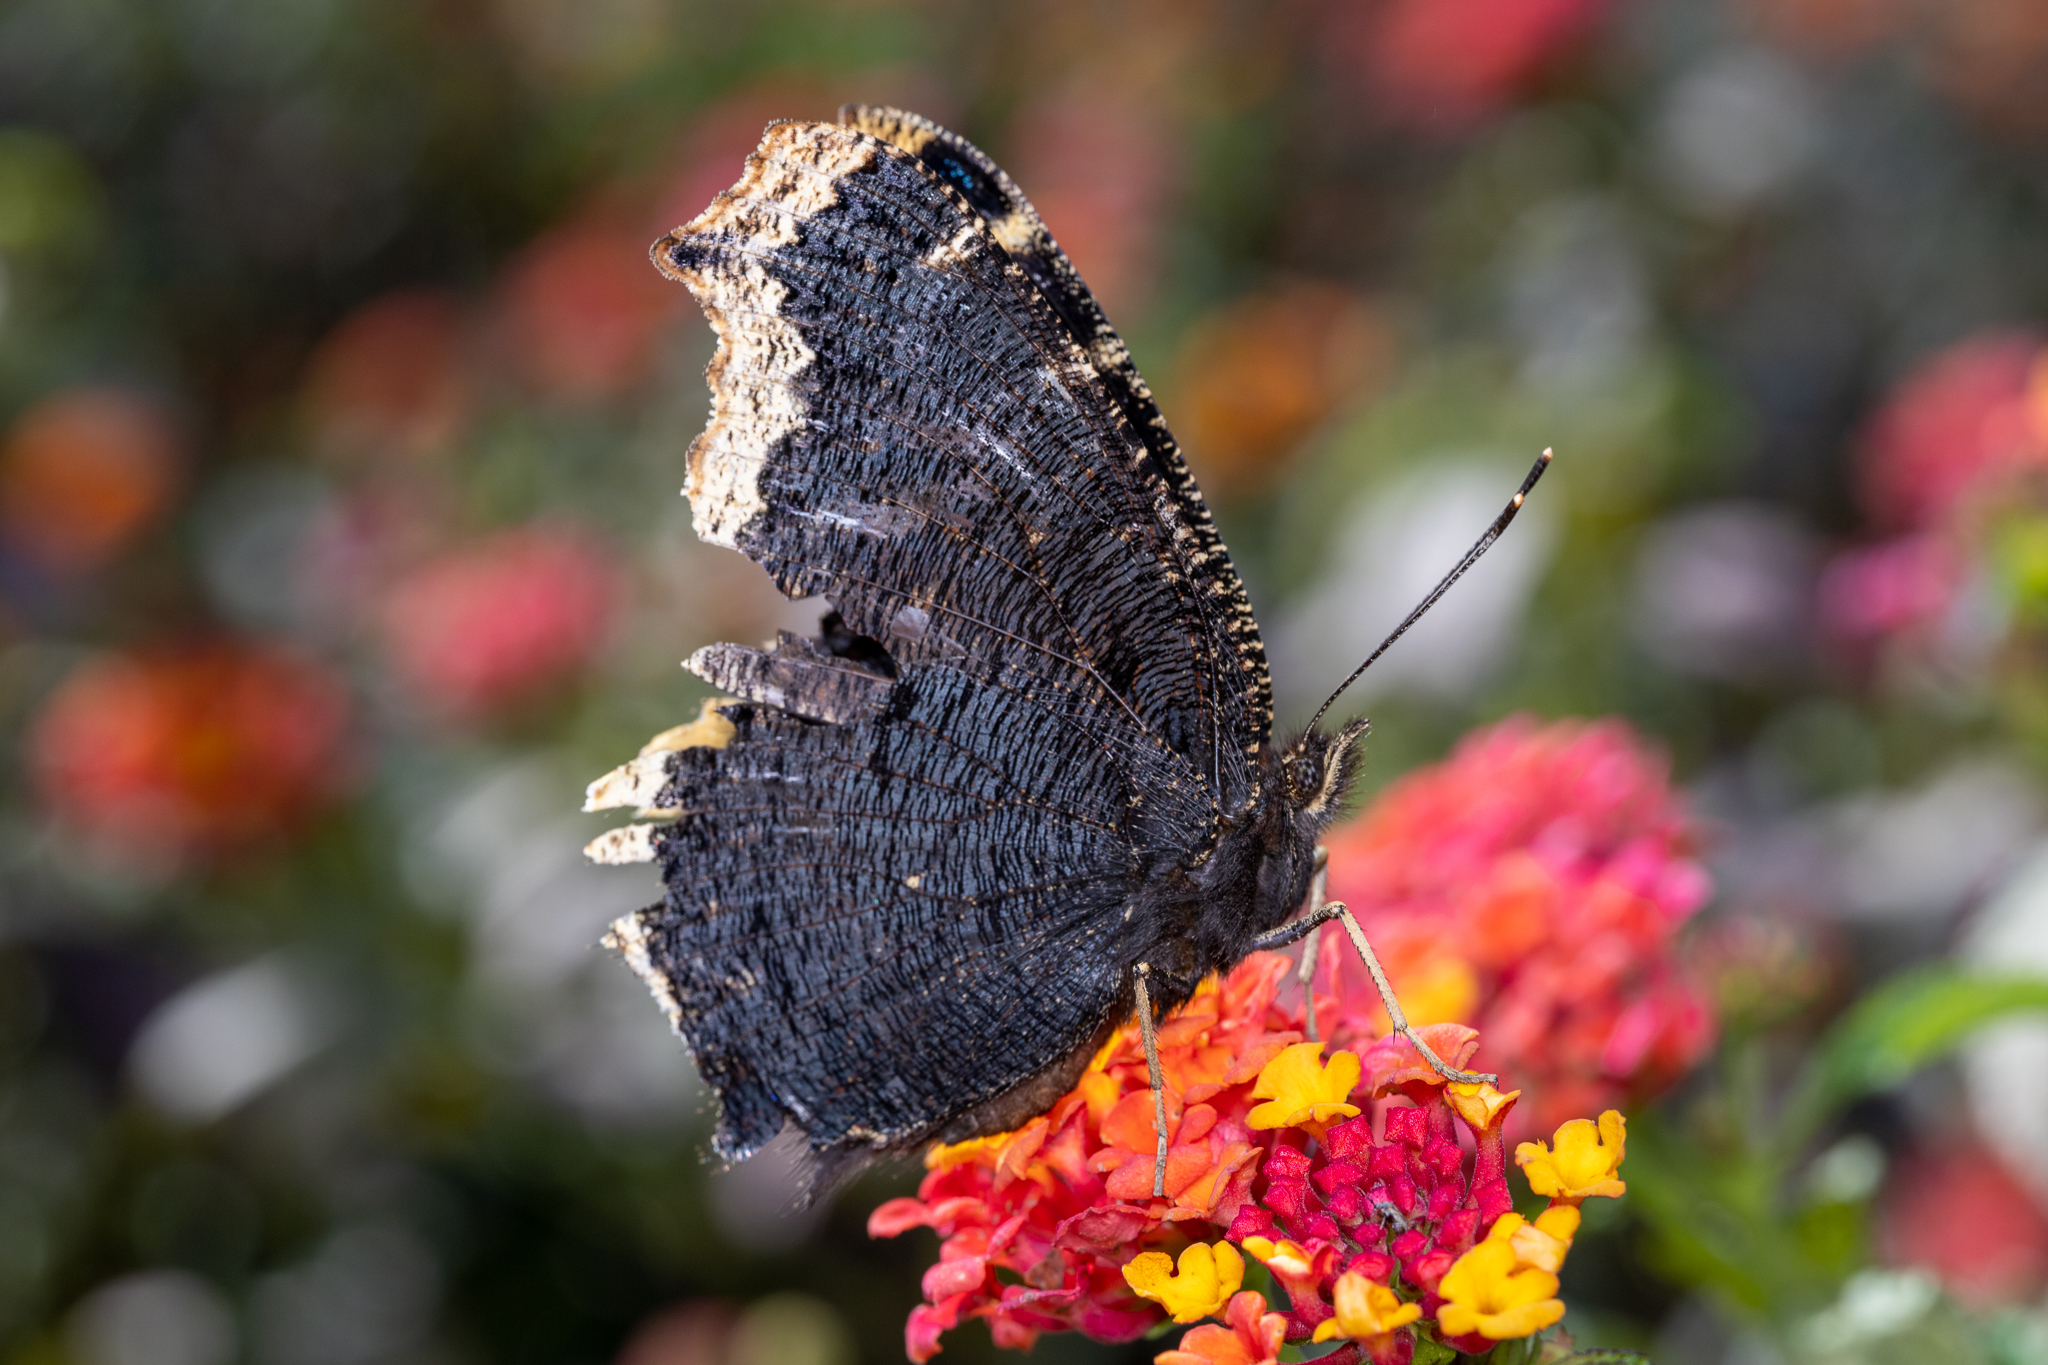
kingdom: Animalia
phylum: Arthropoda
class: Insecta
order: Lepidoptera
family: Nymphalidae
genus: Nymphalis
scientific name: Nymphalis antiopa
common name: Camberwell beauty
